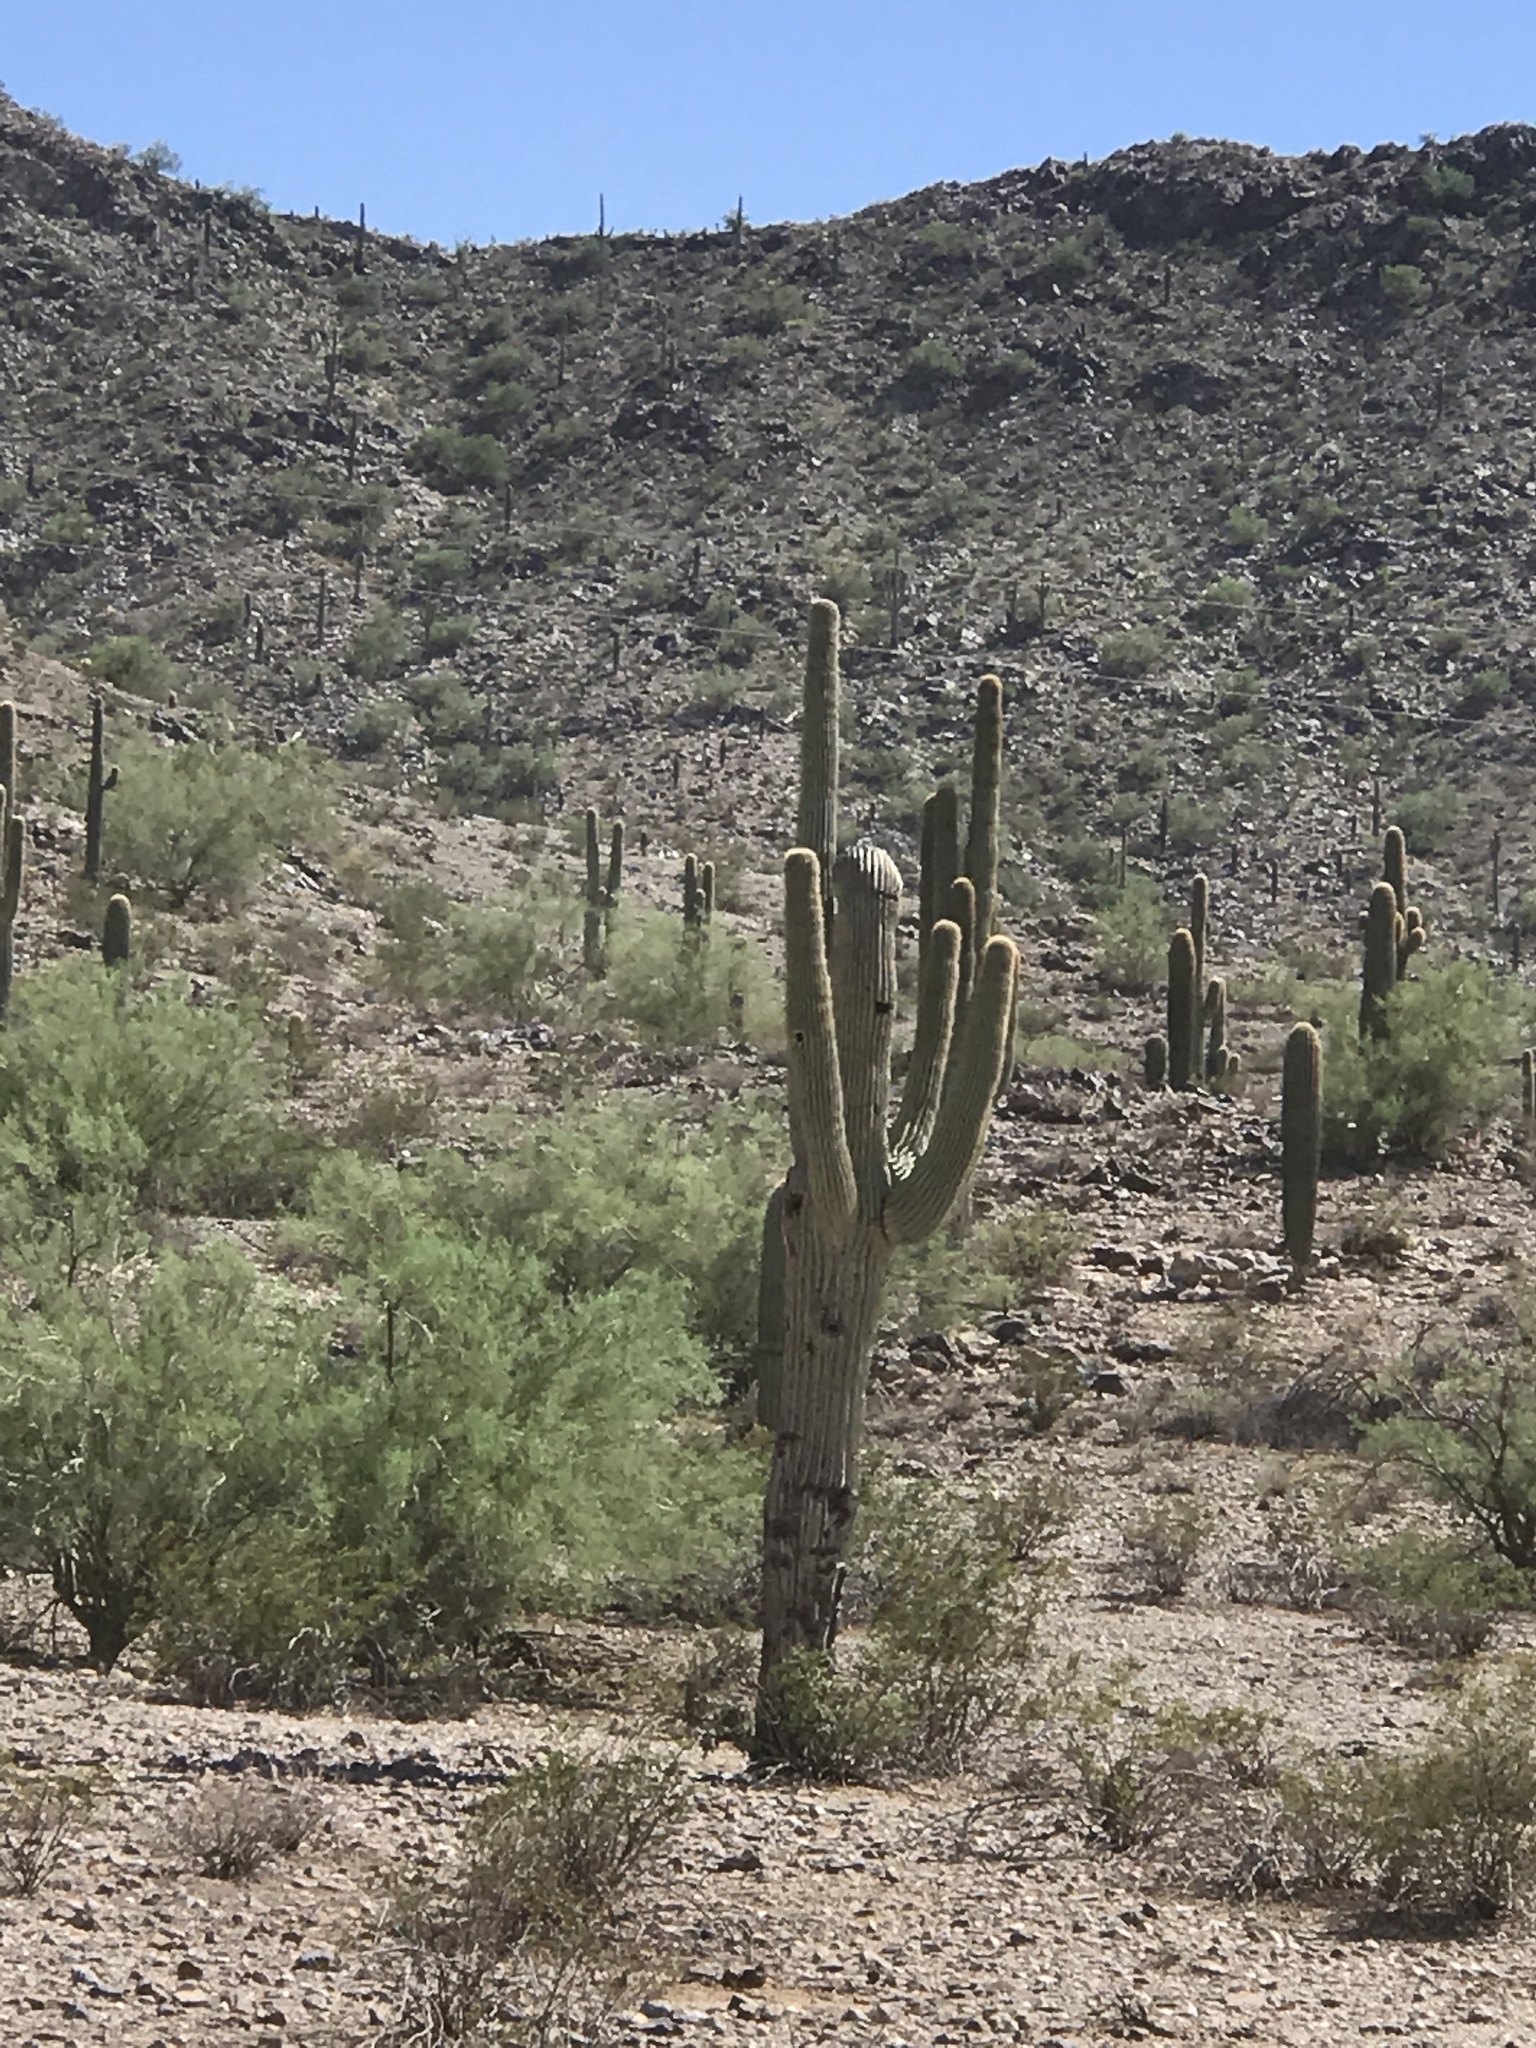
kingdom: Plantae
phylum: Tracheophyta
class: Magnoliopsida
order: Caryophyllales
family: Cactaceae
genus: Carnegiea
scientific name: Carnegiea gigantea
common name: Saguaro
